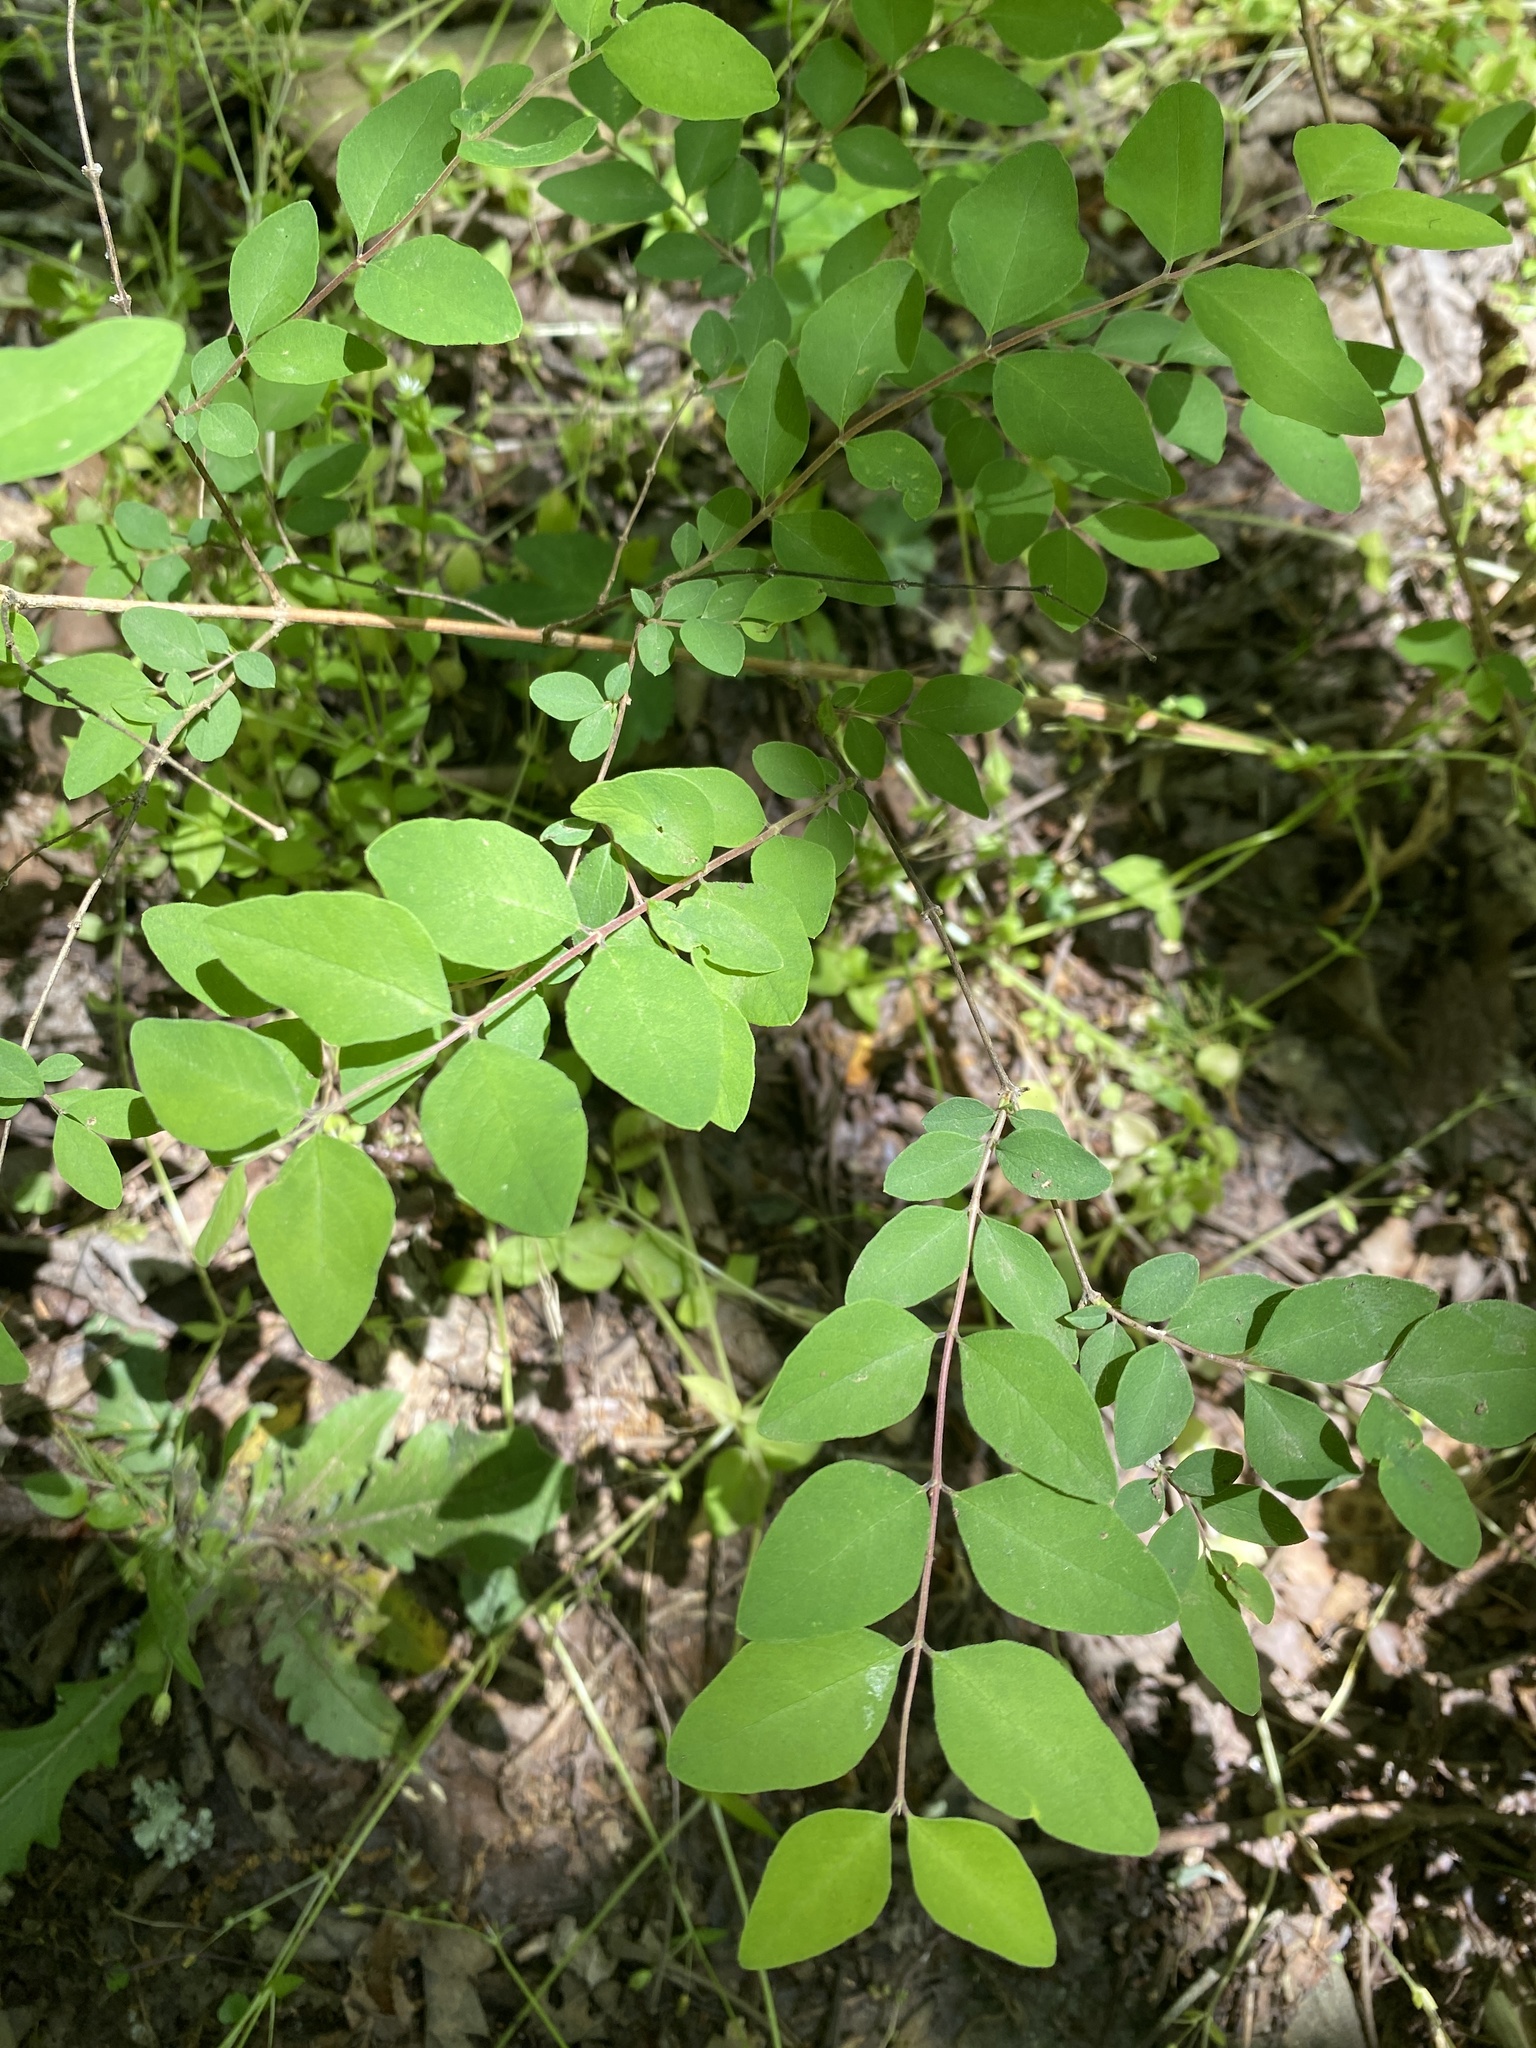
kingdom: Plantae
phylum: Tracheophyta
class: Magnoliopsida
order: Dipsacales
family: Caprifoliaceae
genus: Symphoricarpos
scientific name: Symphoricarpos orbiculatus
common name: Coralberry
